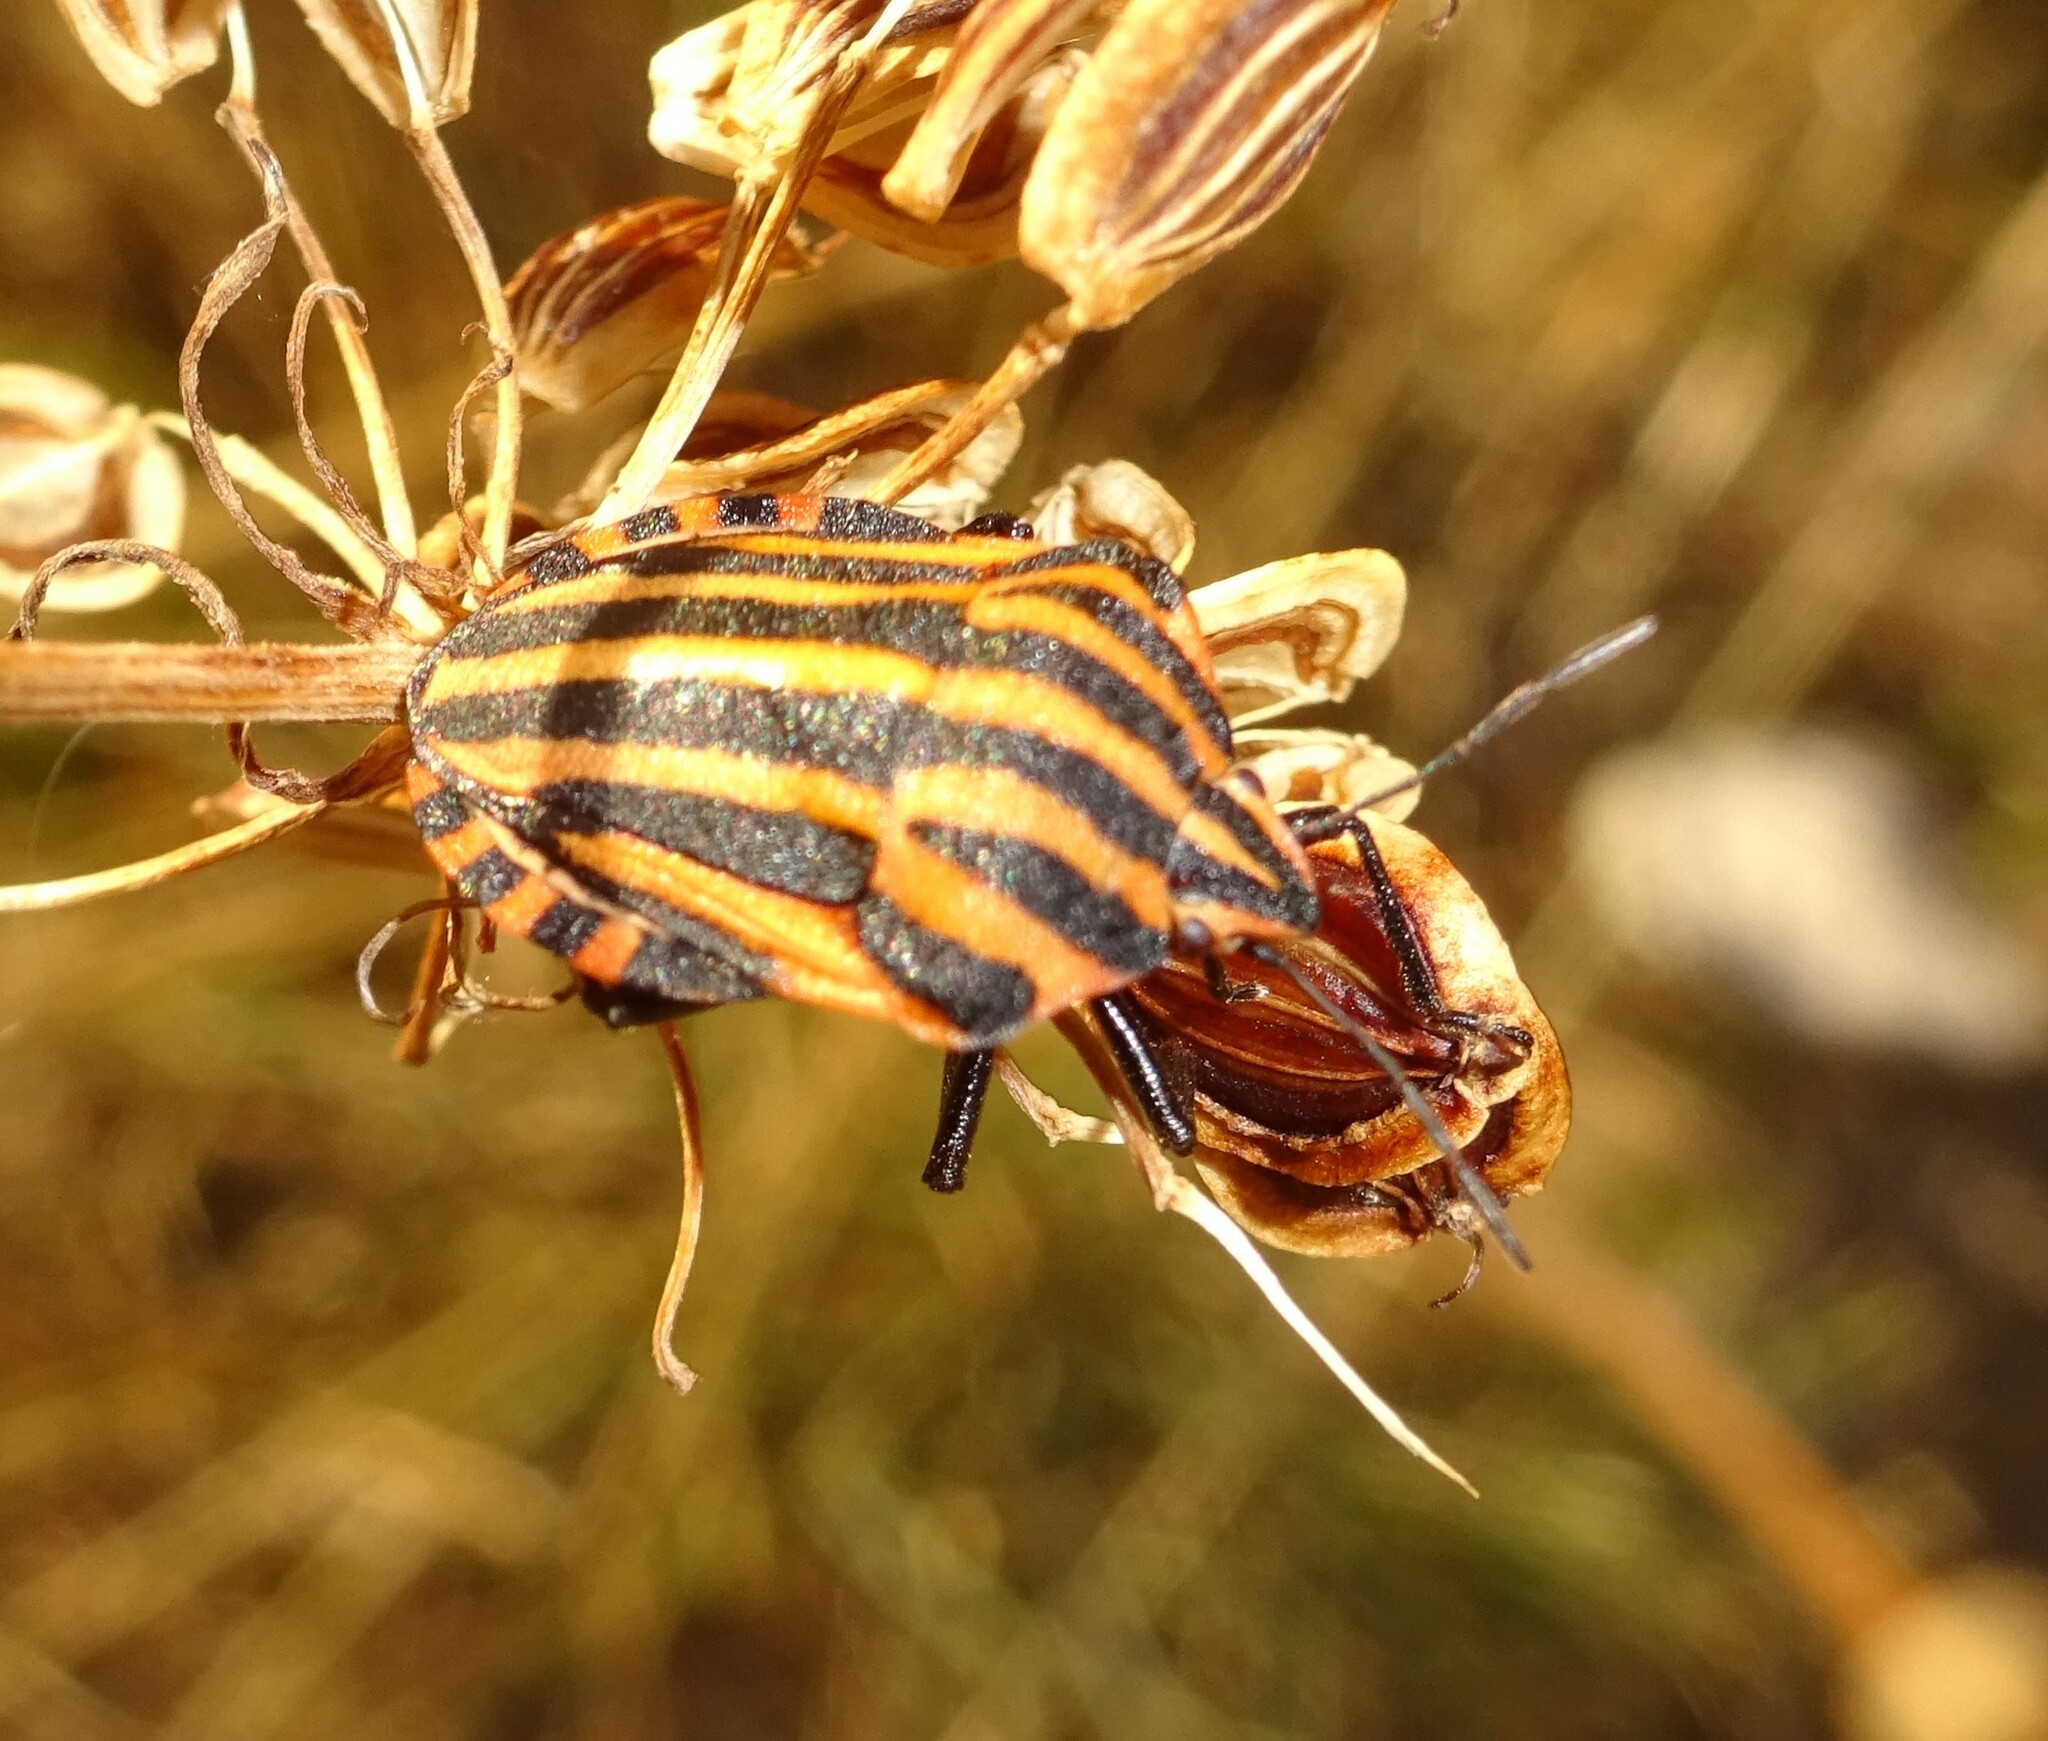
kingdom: Animalia
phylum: Arthropoda
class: Insecta
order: Hemiptera
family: Pentatomidae
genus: Graphosoma
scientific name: Graphosoma italicum
